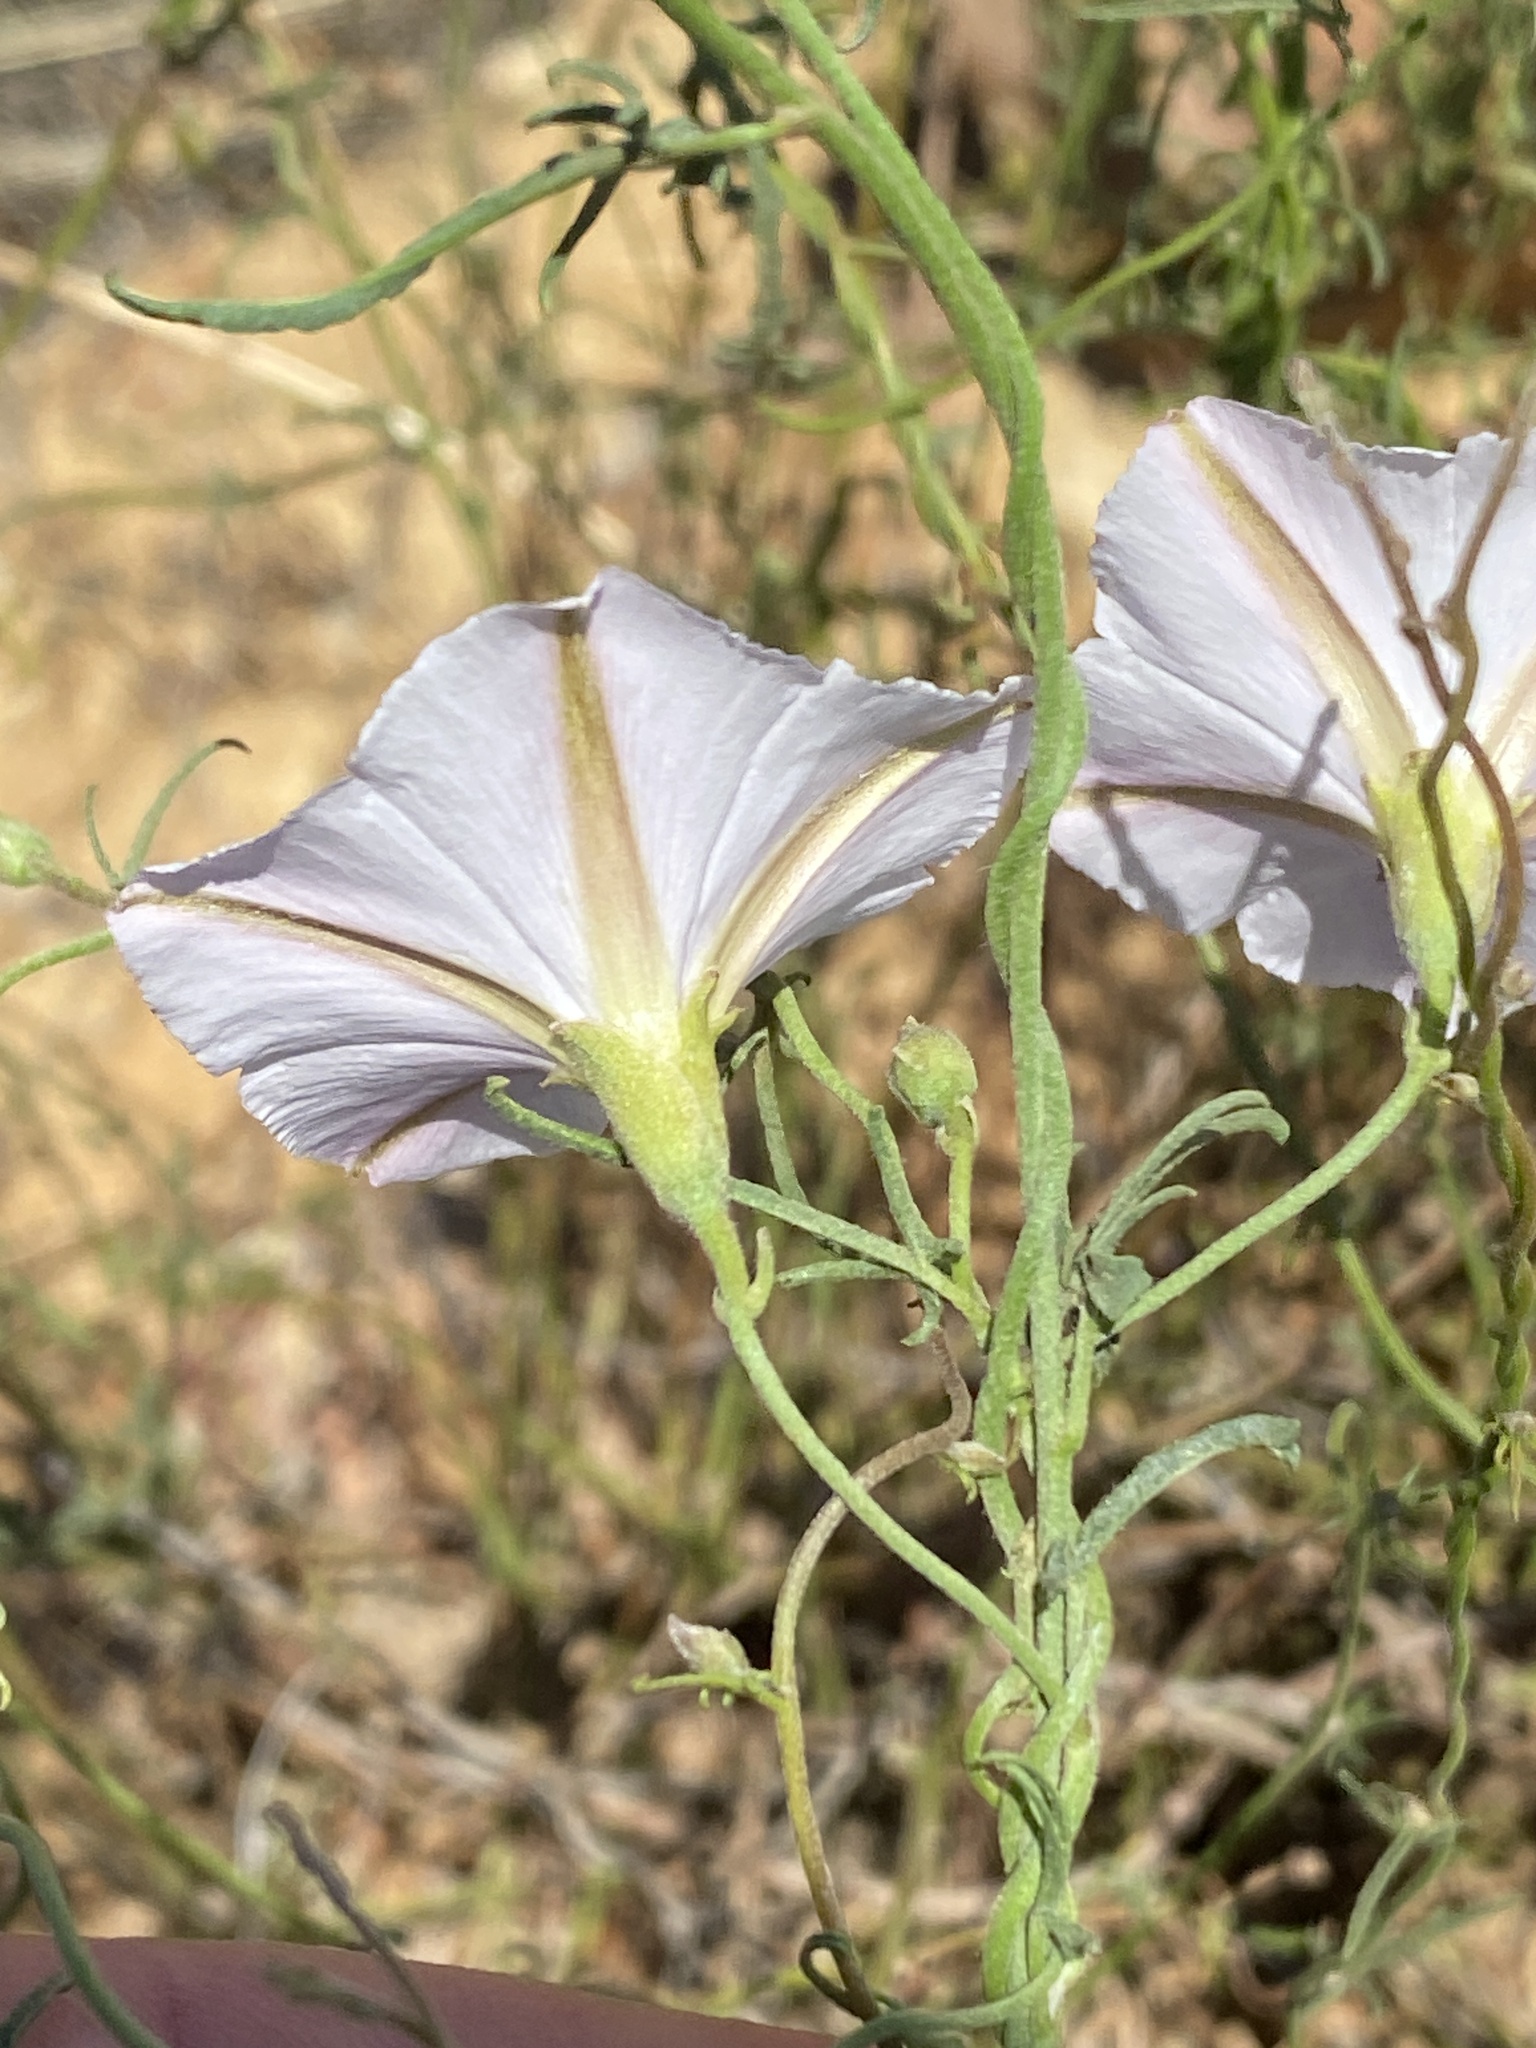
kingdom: Plantae
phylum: Tracheophyta
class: Magnoliopsida
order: Solanales
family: Convolvulaceae
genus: Convolvulus
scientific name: Convolvulus capensis
